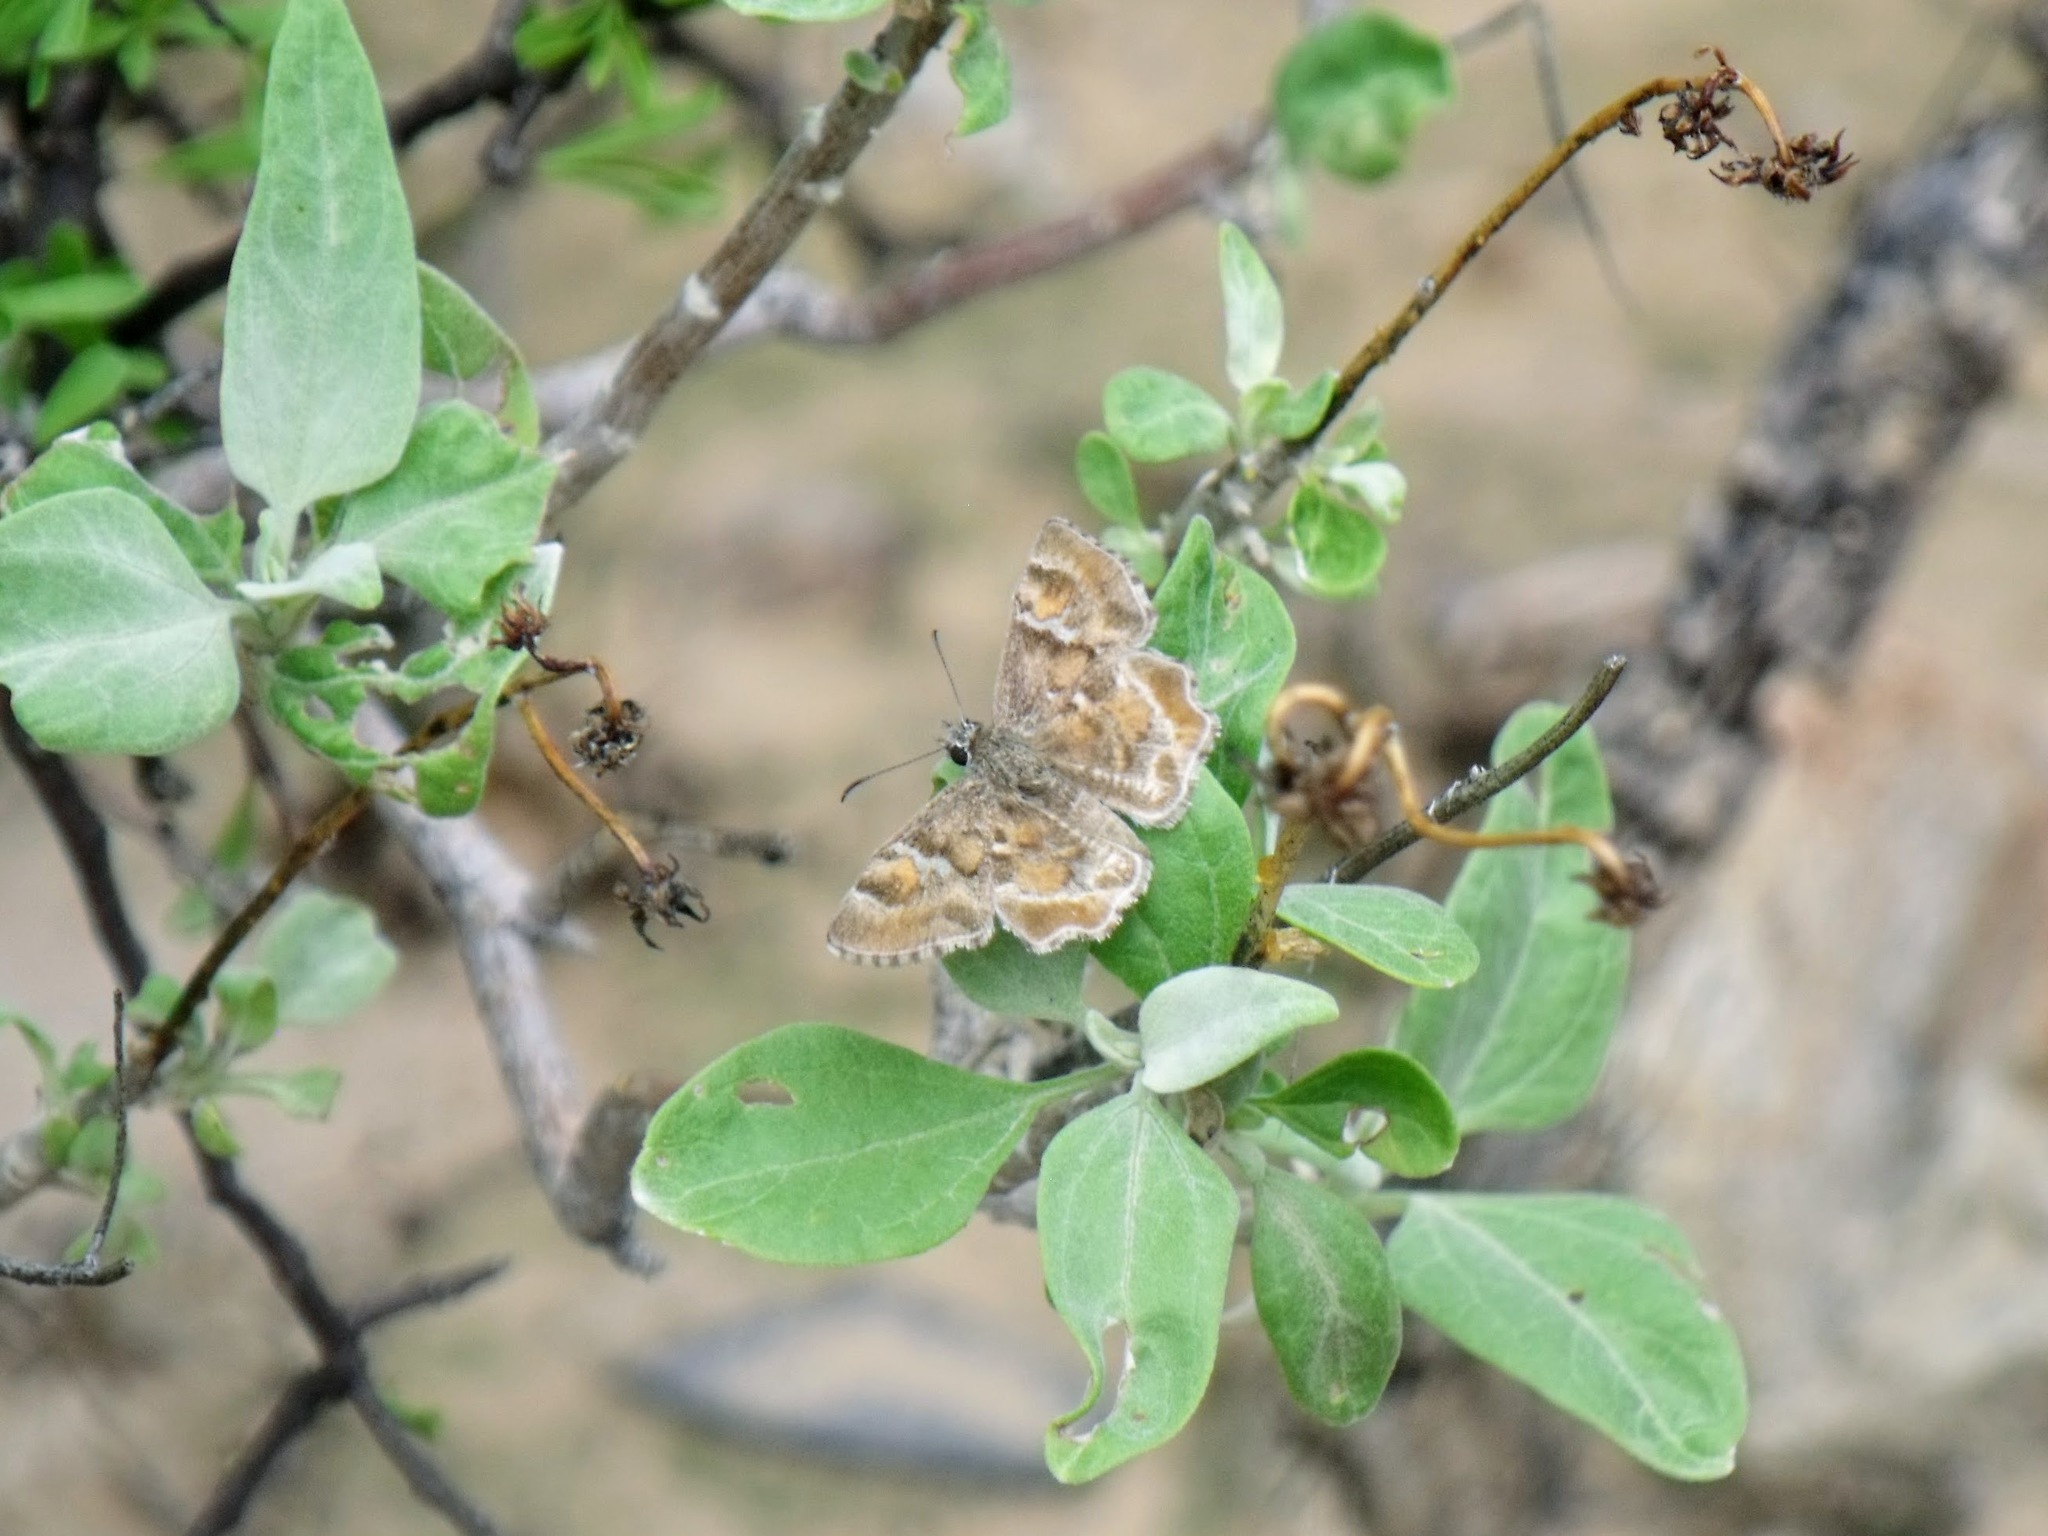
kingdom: Animalia
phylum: Arthropoda
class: Insecta
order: Lepidoptera
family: Hesperiidae
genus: Systasea
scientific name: Systasea zampa
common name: Arizona powdered-skipper
